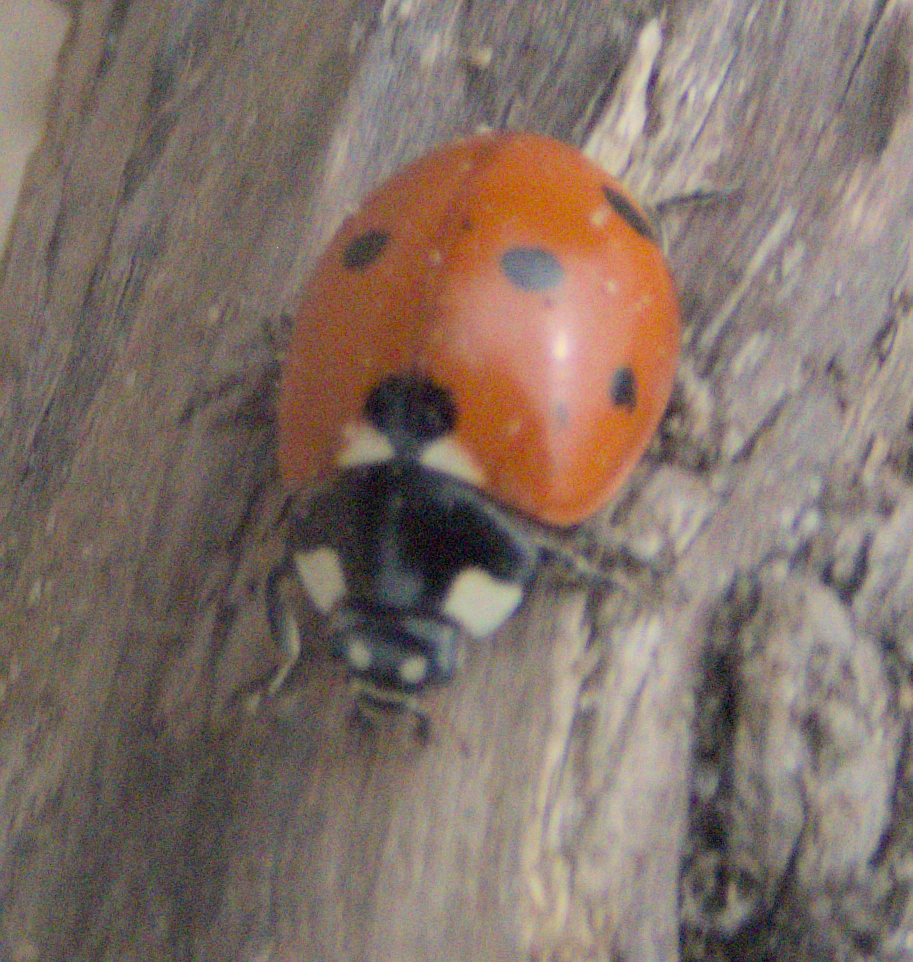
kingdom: Animalia
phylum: Arthropoda
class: Insecta
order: Coleoptera
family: Coccinellidae
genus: Coccinella
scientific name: Coccinella septempunctata
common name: Sevenspotted lady beetle
